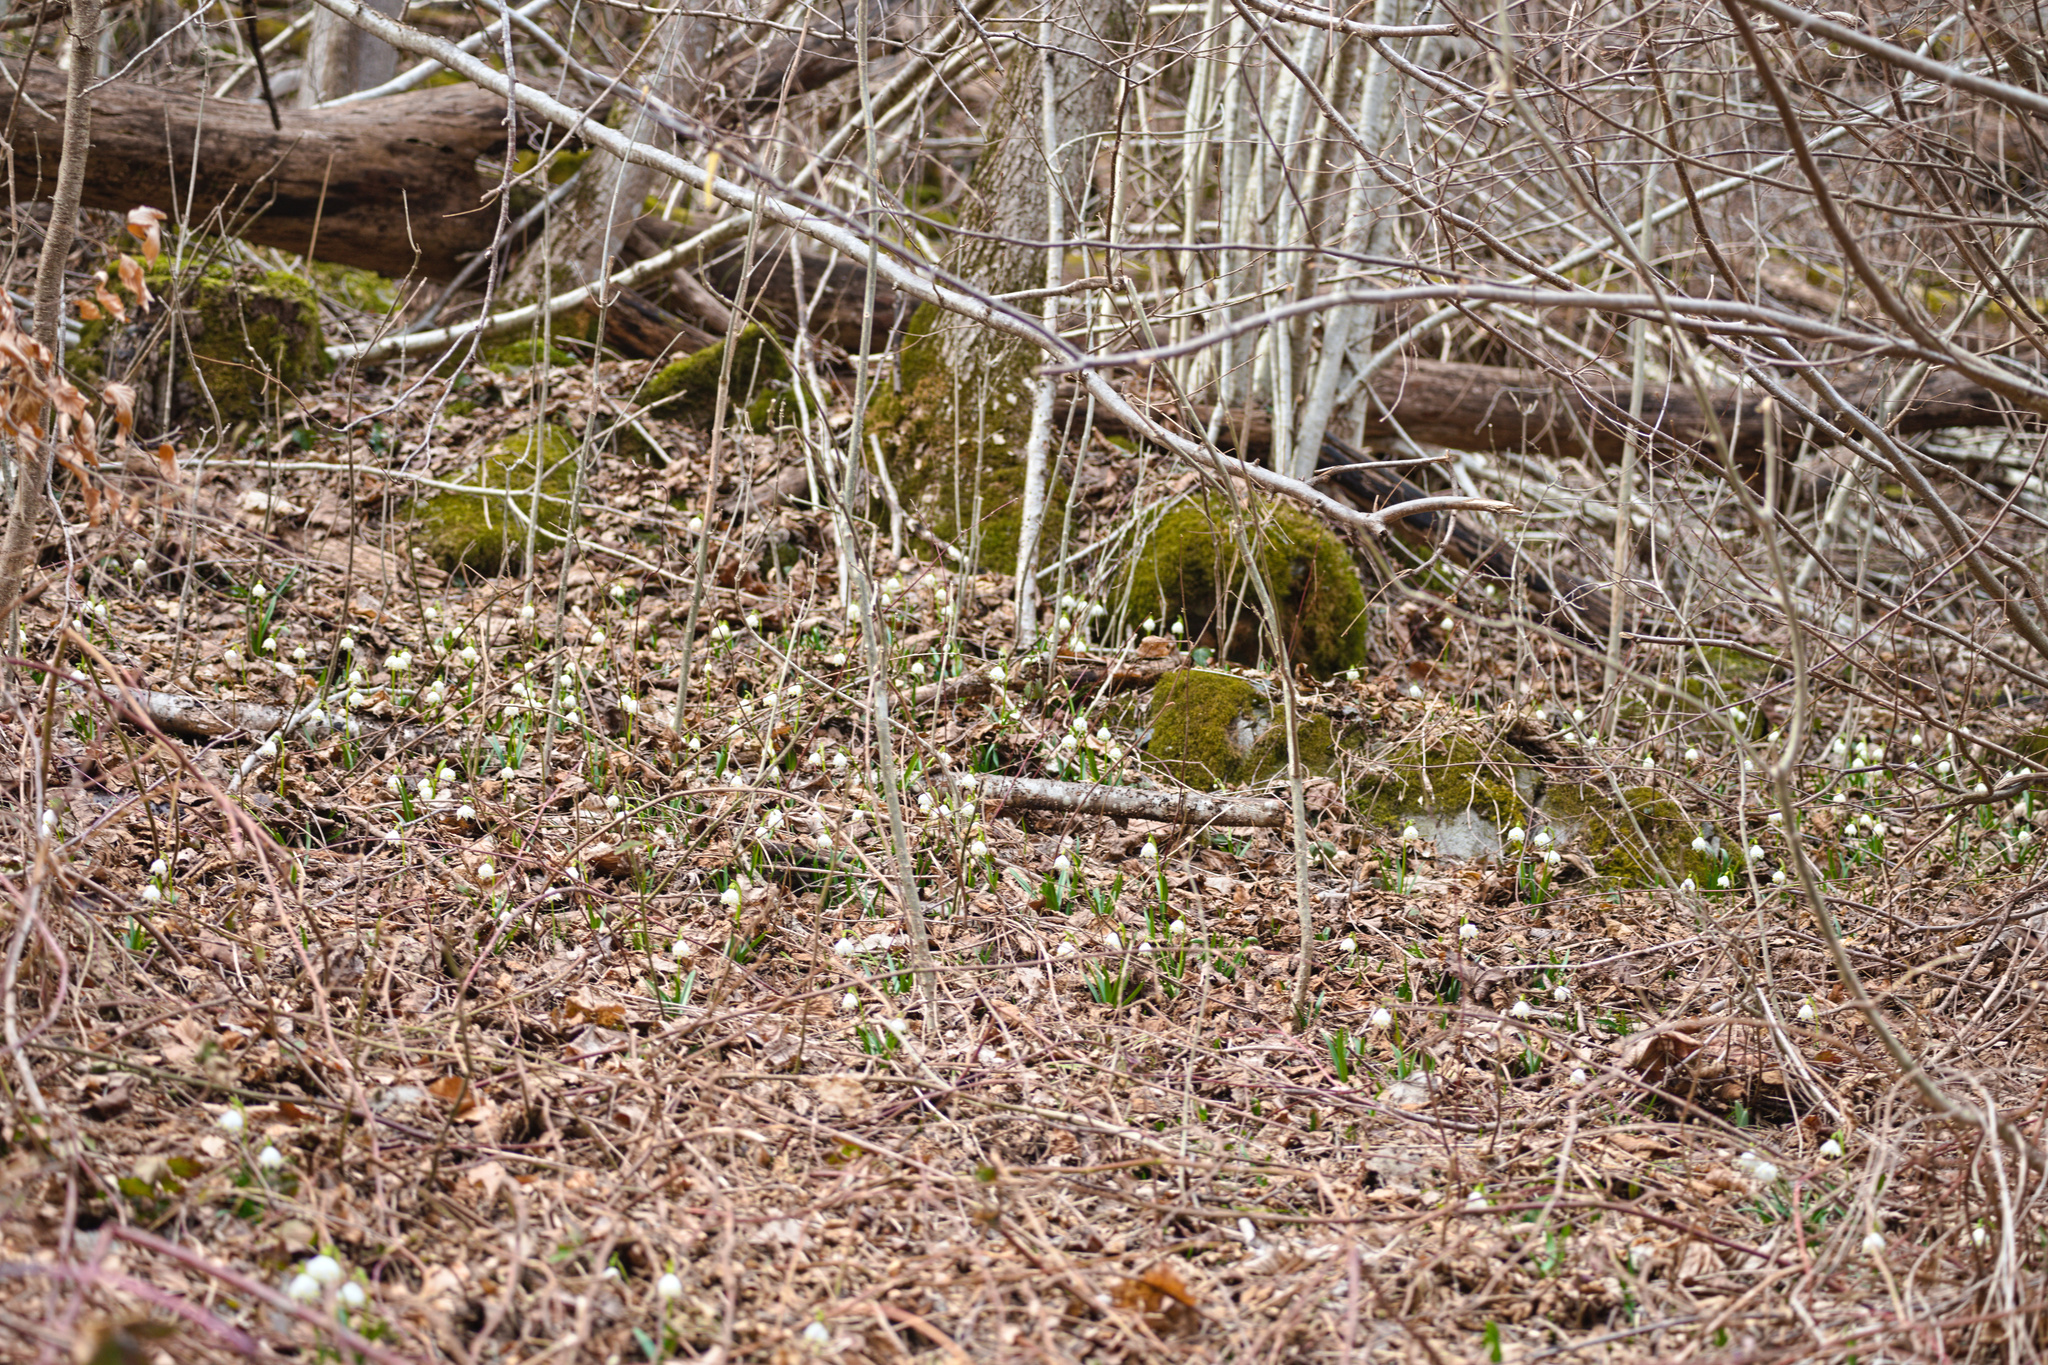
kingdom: Plantae
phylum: Tracheophyta
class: Liliopsida
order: Asparagales
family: Amaryllidaceae
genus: Leucojum
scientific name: Leucojum vernum
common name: Spring snowflake
